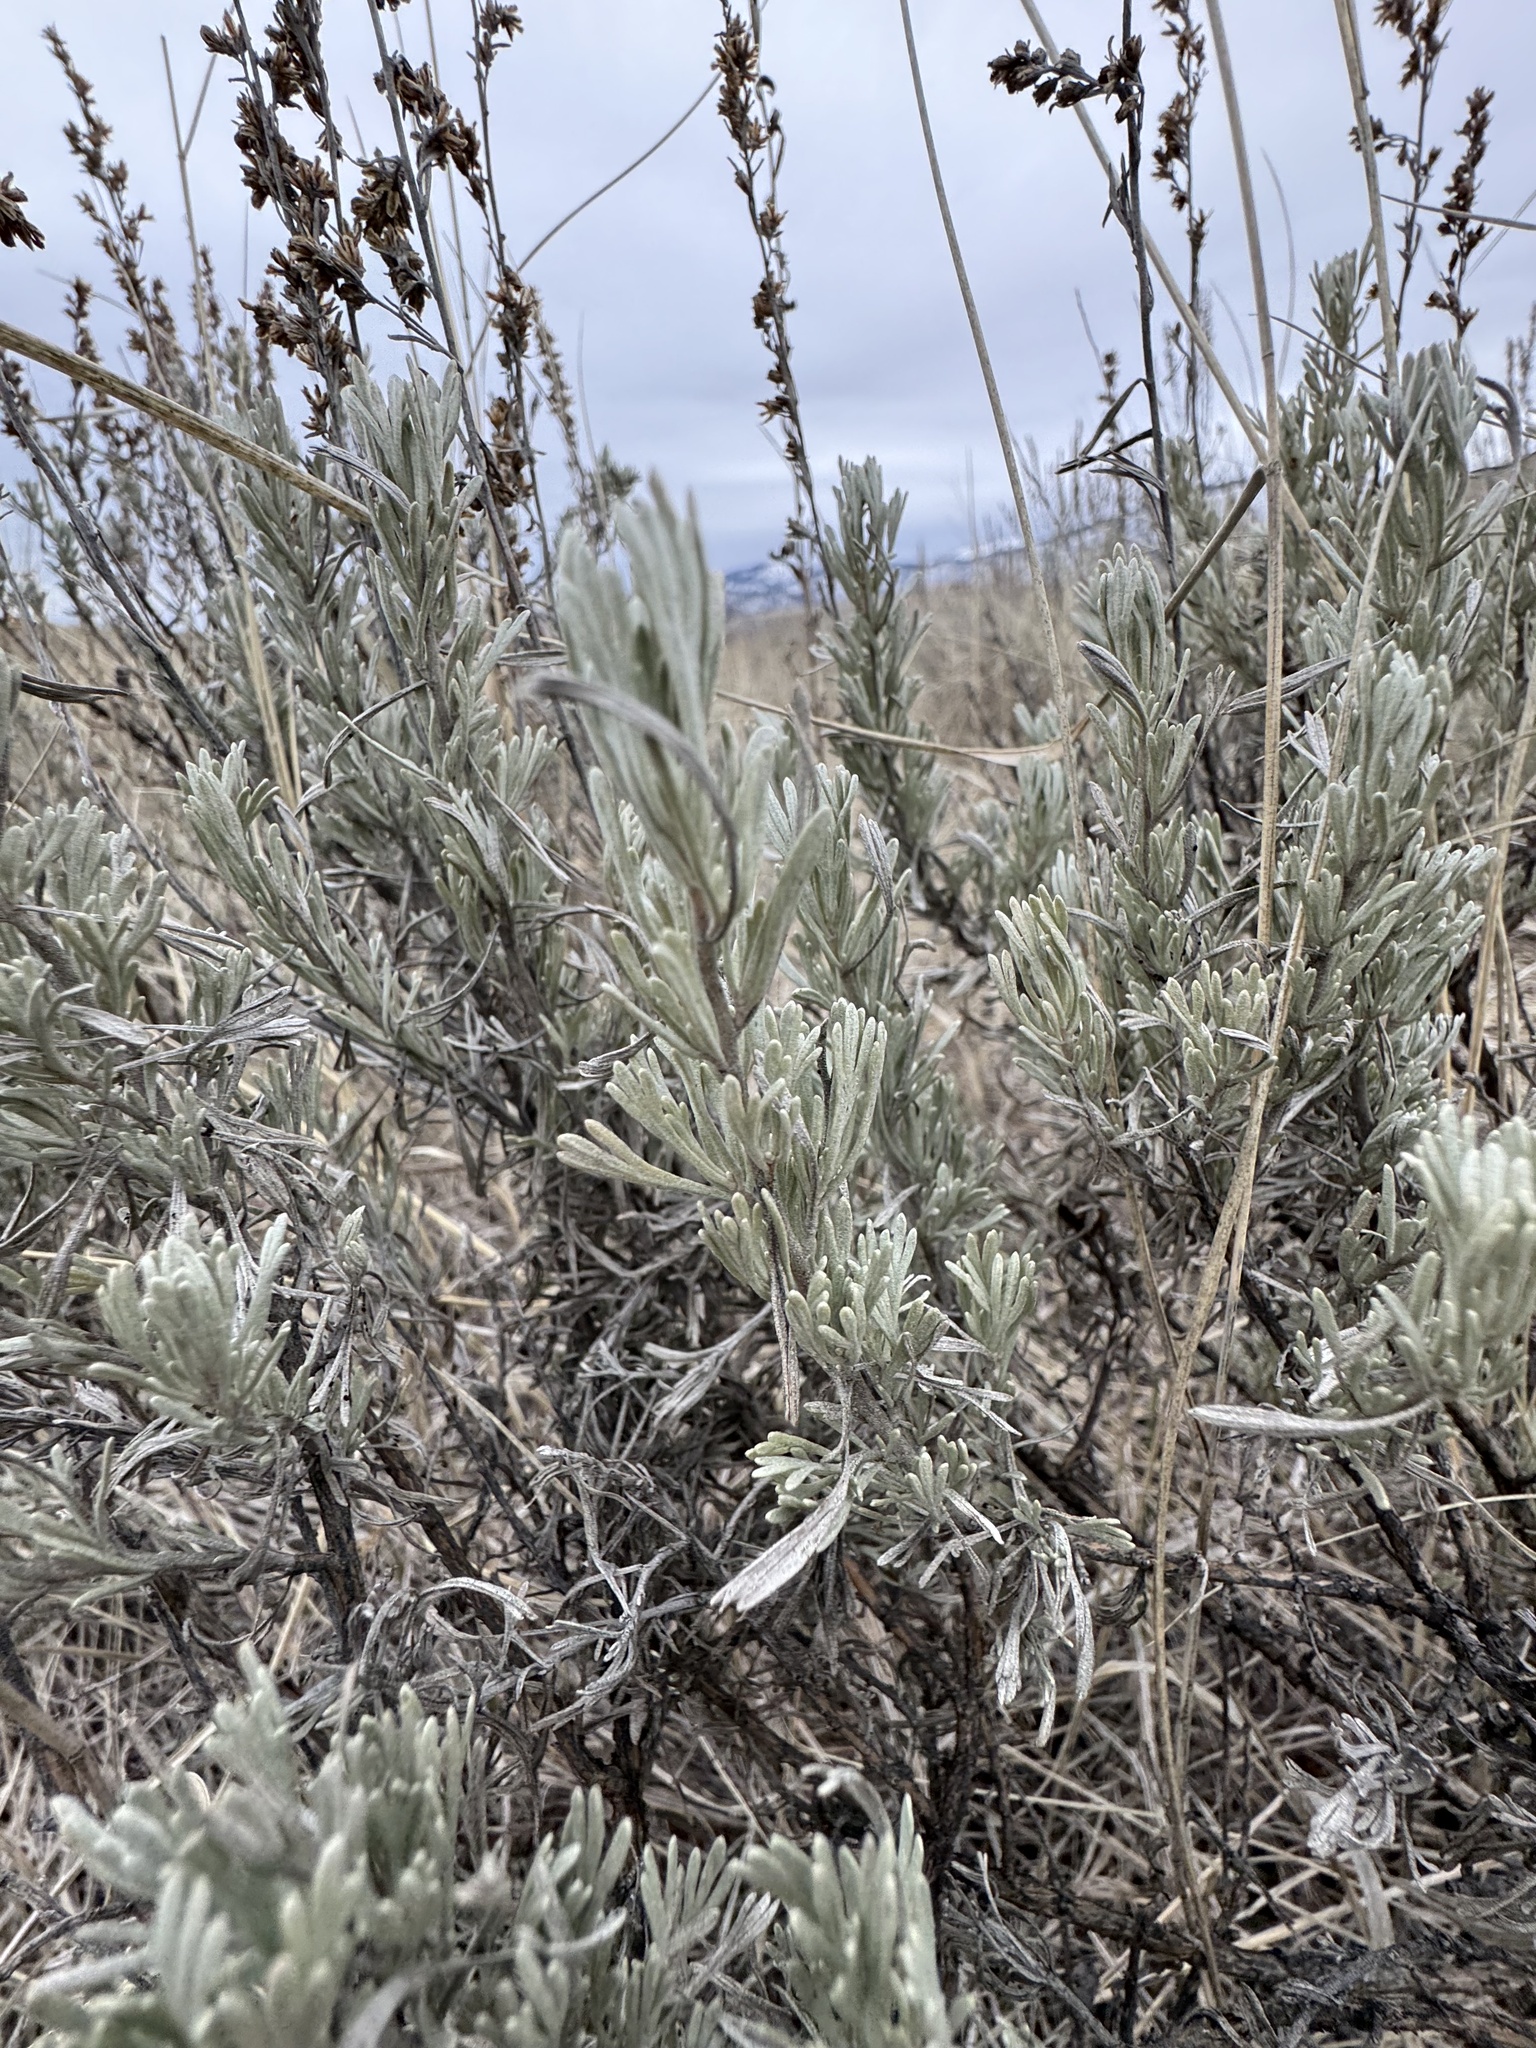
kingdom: Plantae
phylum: Tracheophyta
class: Magnoliopsida
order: Asterales
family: Asteraceae
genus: Artemisia
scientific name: Artemisia tripartita
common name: Three-tip sagebrush
